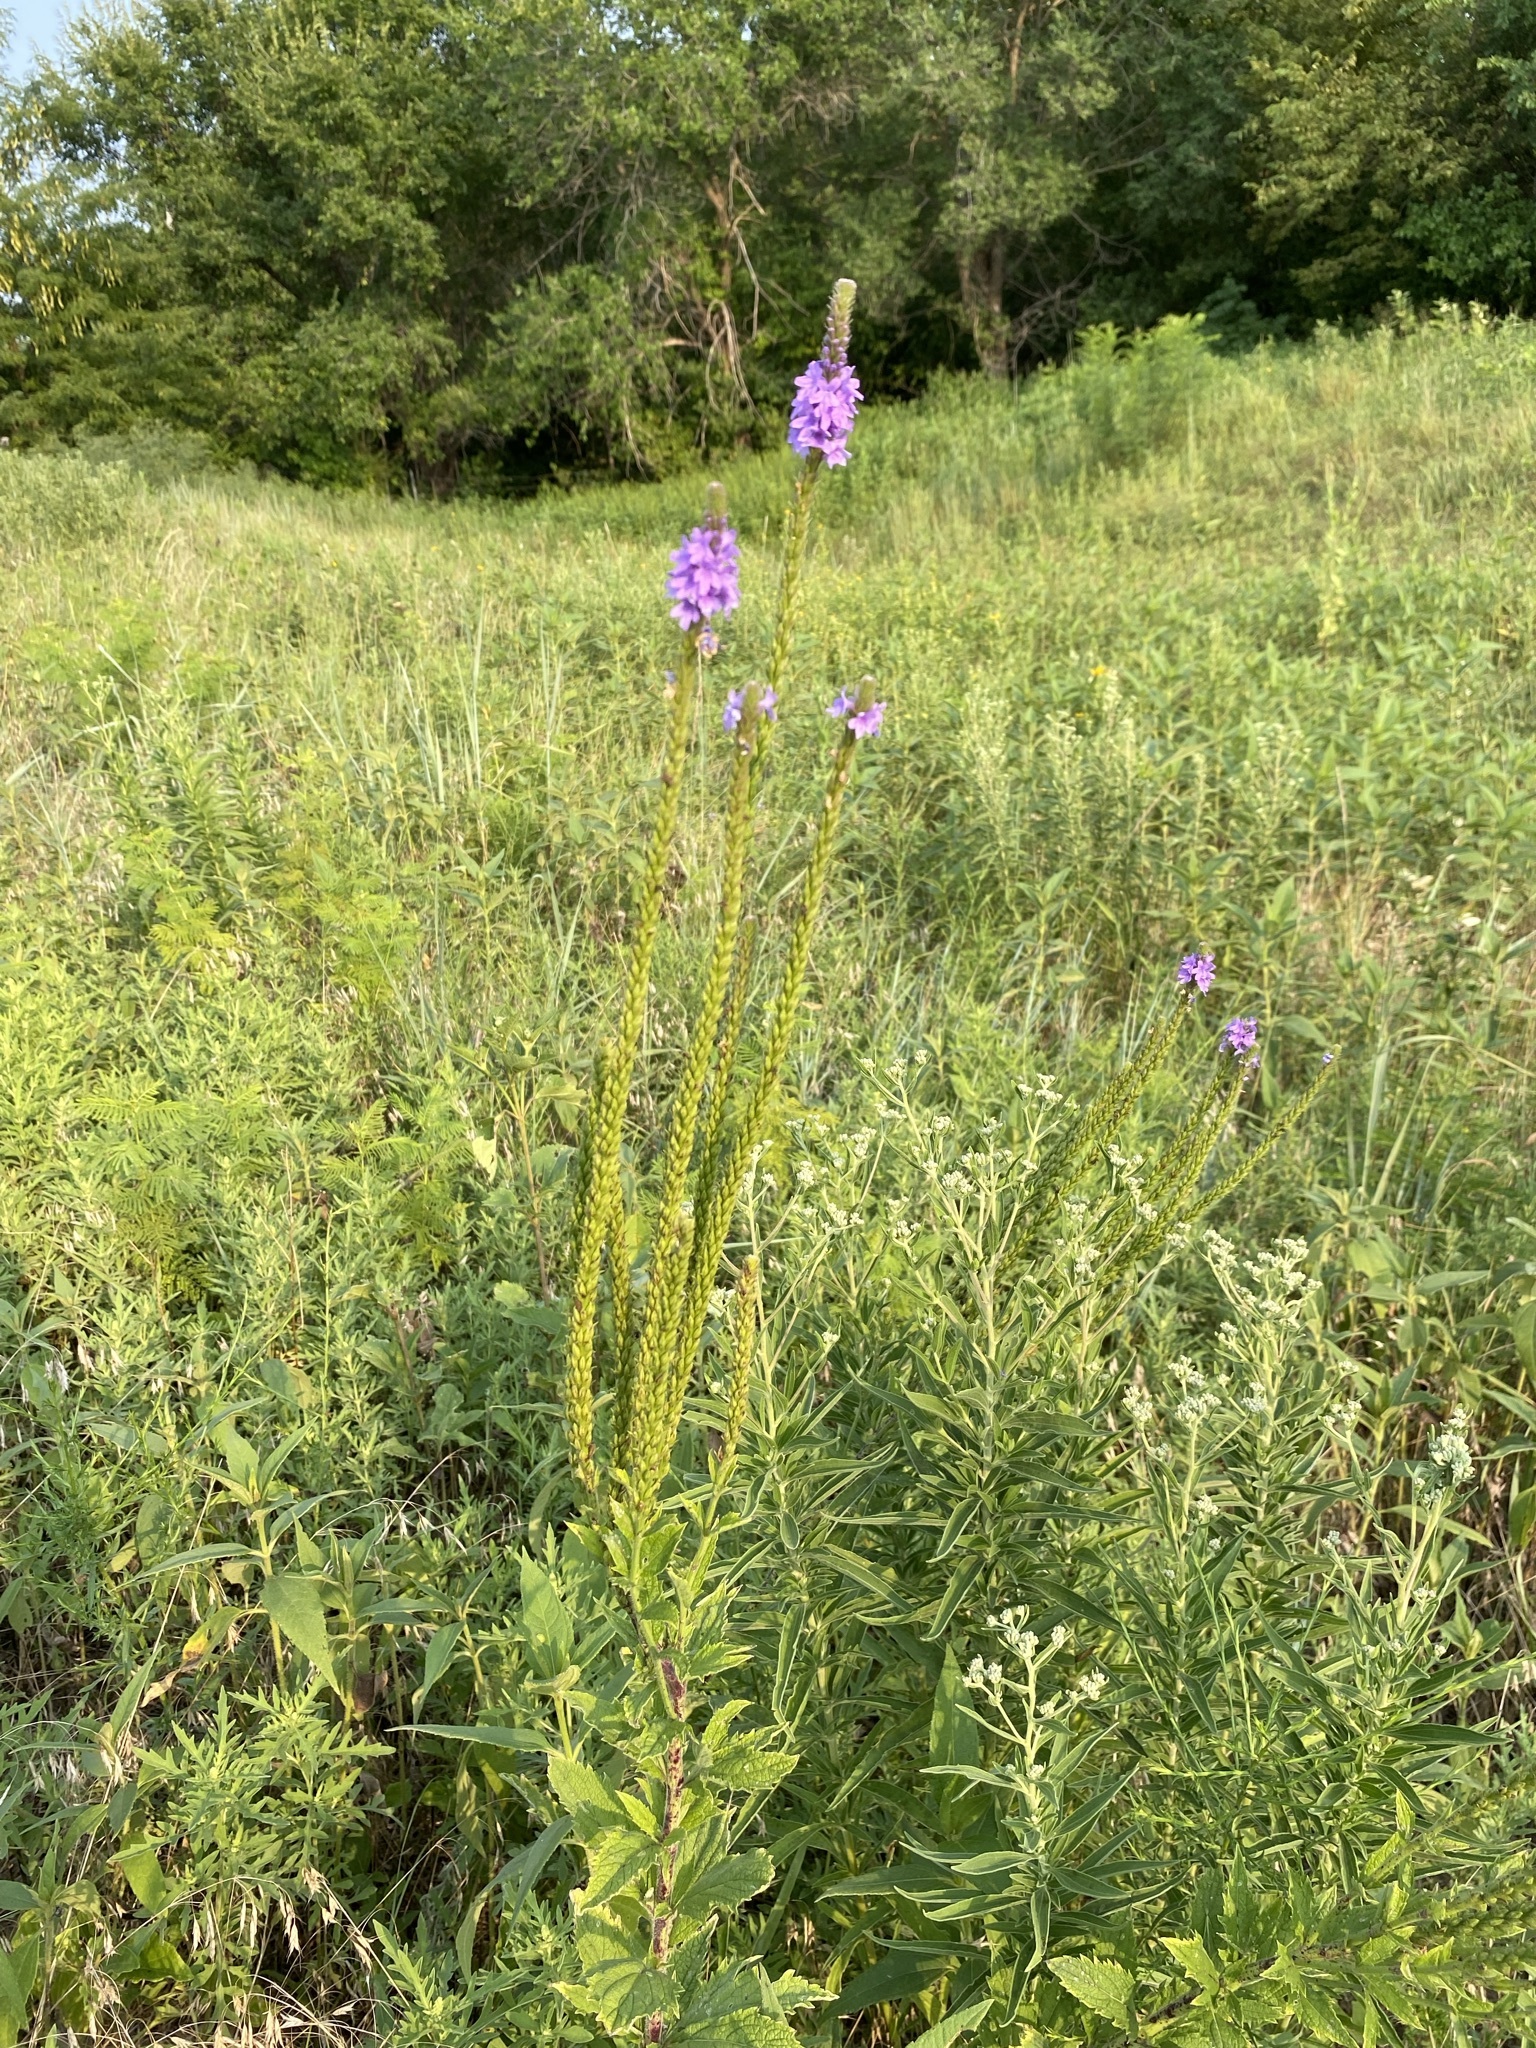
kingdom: Plantae
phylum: Tracheophyta
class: Magnoliopsida
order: Lamiales
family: Verbenaceae
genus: Verbena
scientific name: Verbena stricta
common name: Hoary vervain
